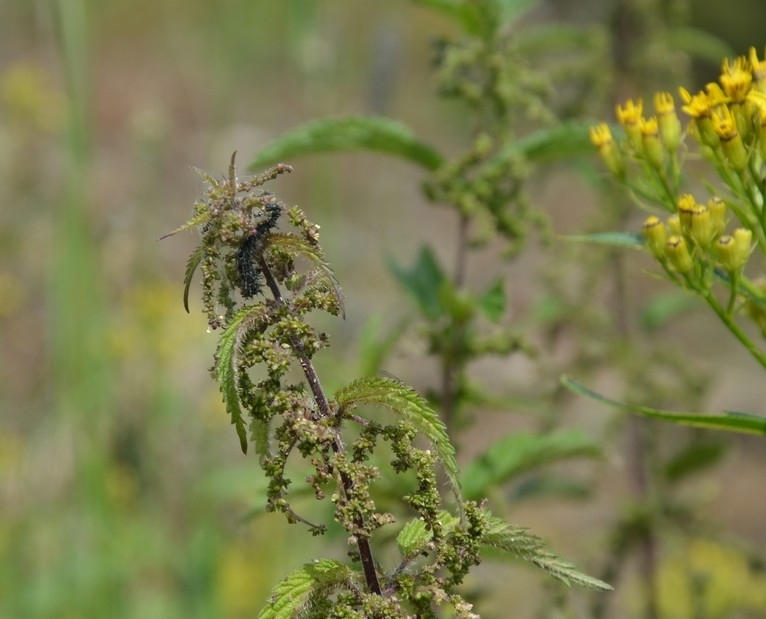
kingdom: Animalia
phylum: Arthropoda
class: Insecta
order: Lepidoptera
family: Nymphalidae
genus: Aglais
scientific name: Aglais io
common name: Peacock
